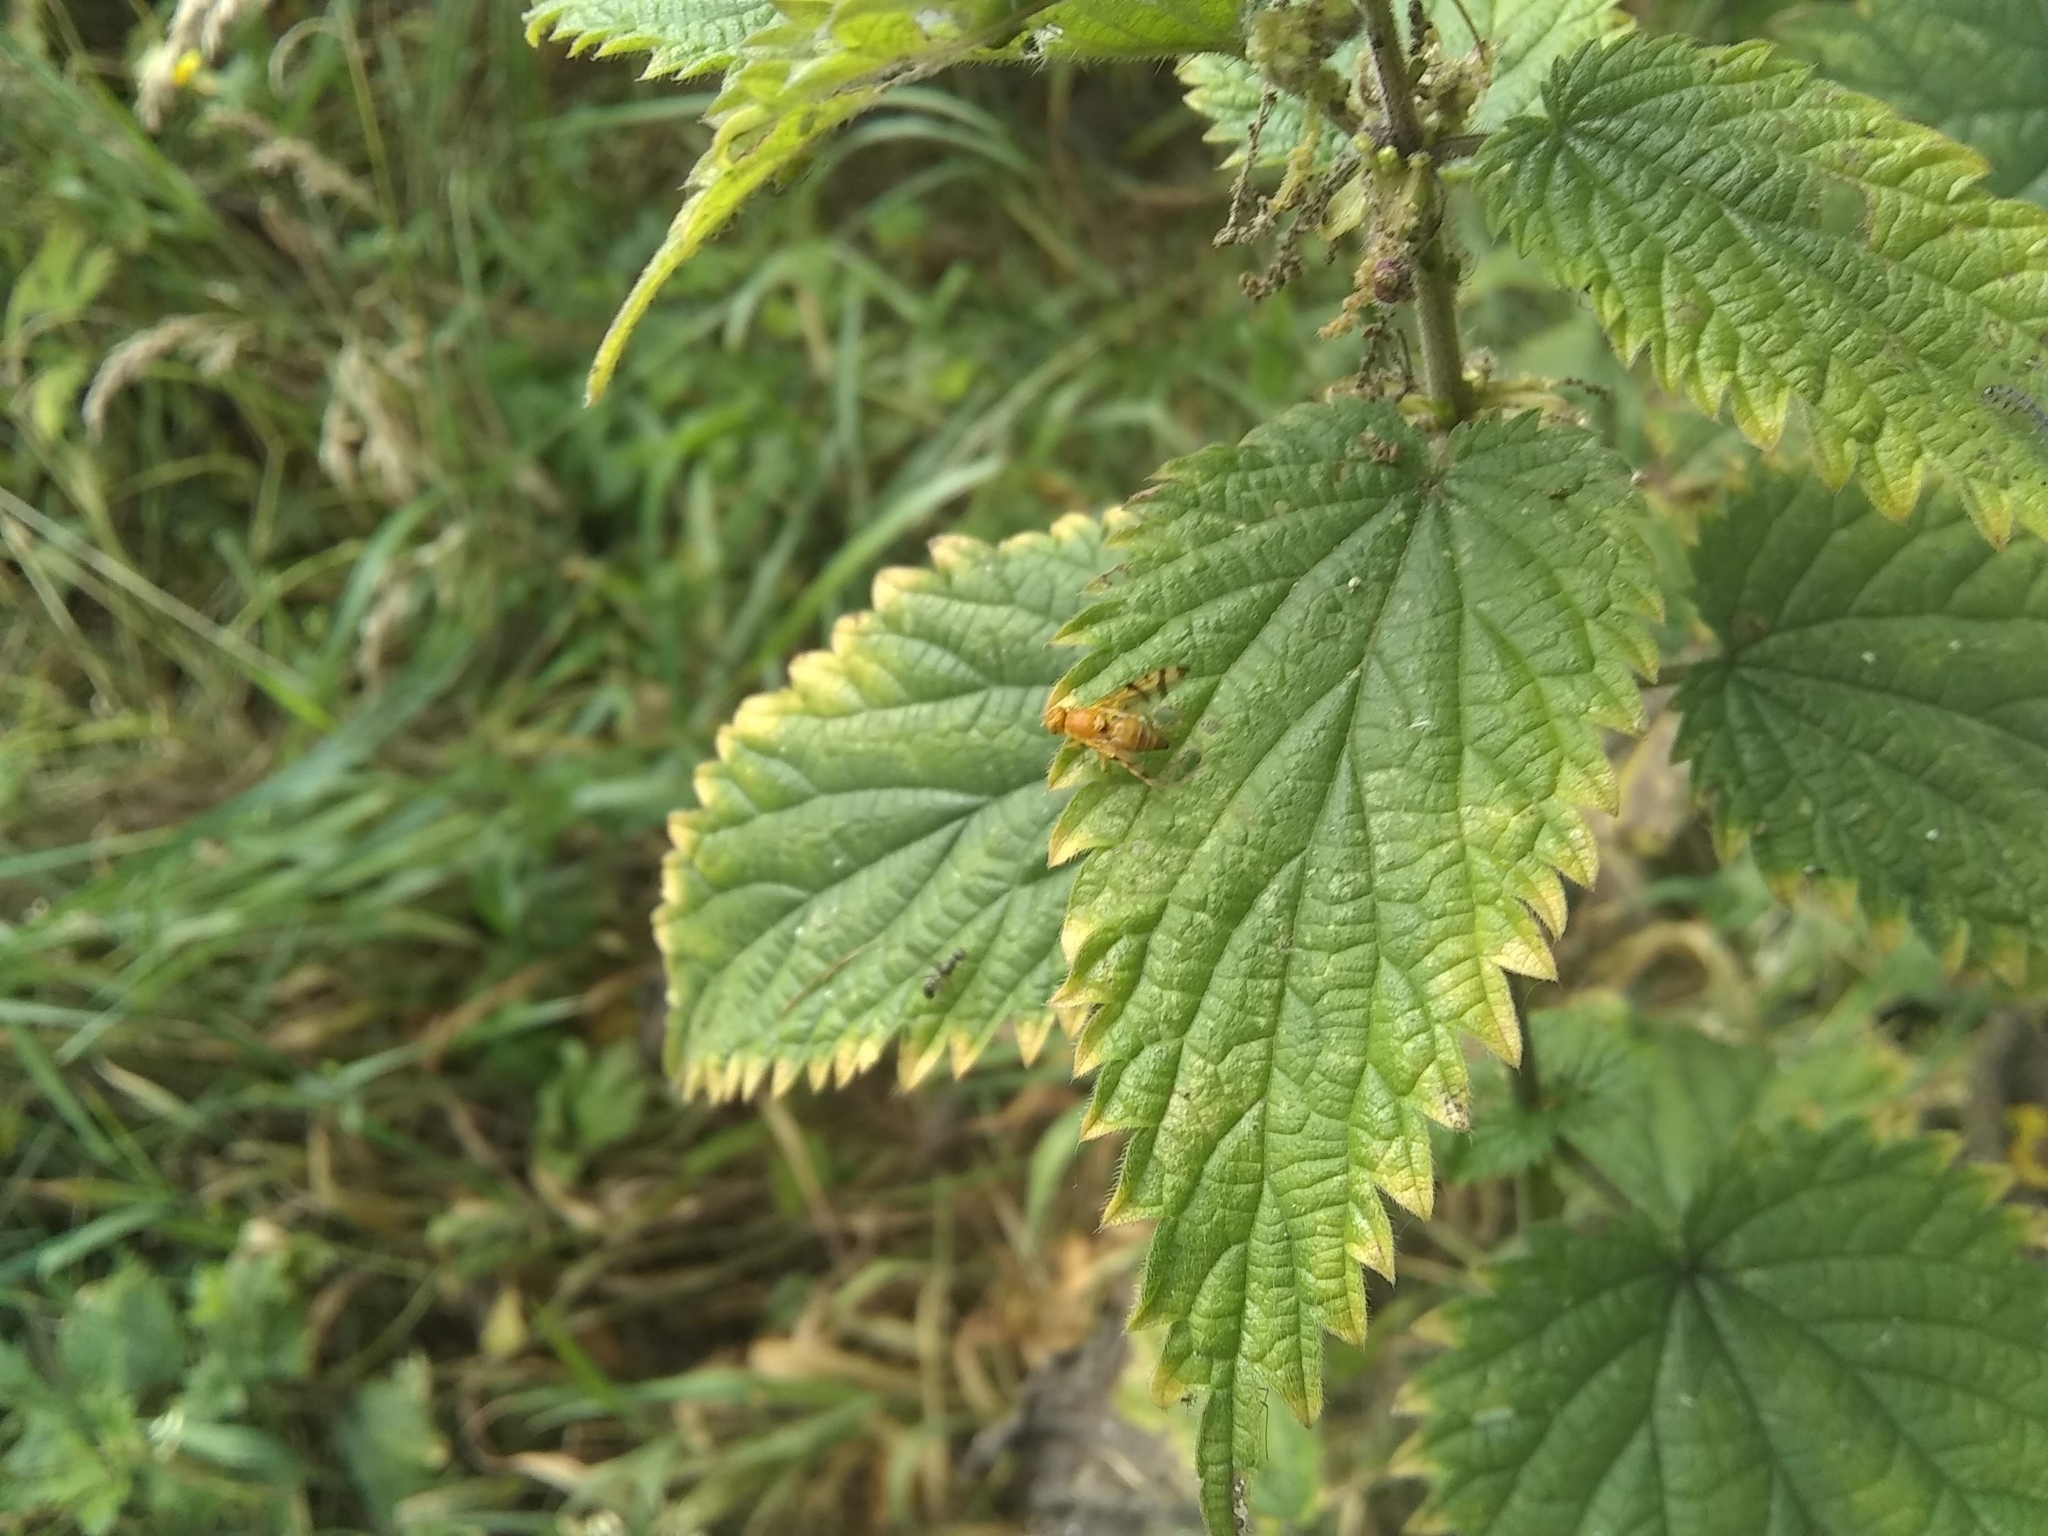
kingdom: Animalia
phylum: Arthropoda
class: Insecta
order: Diptera
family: Tephritidae
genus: Rhagoletis
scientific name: Rhagoletis alternata
